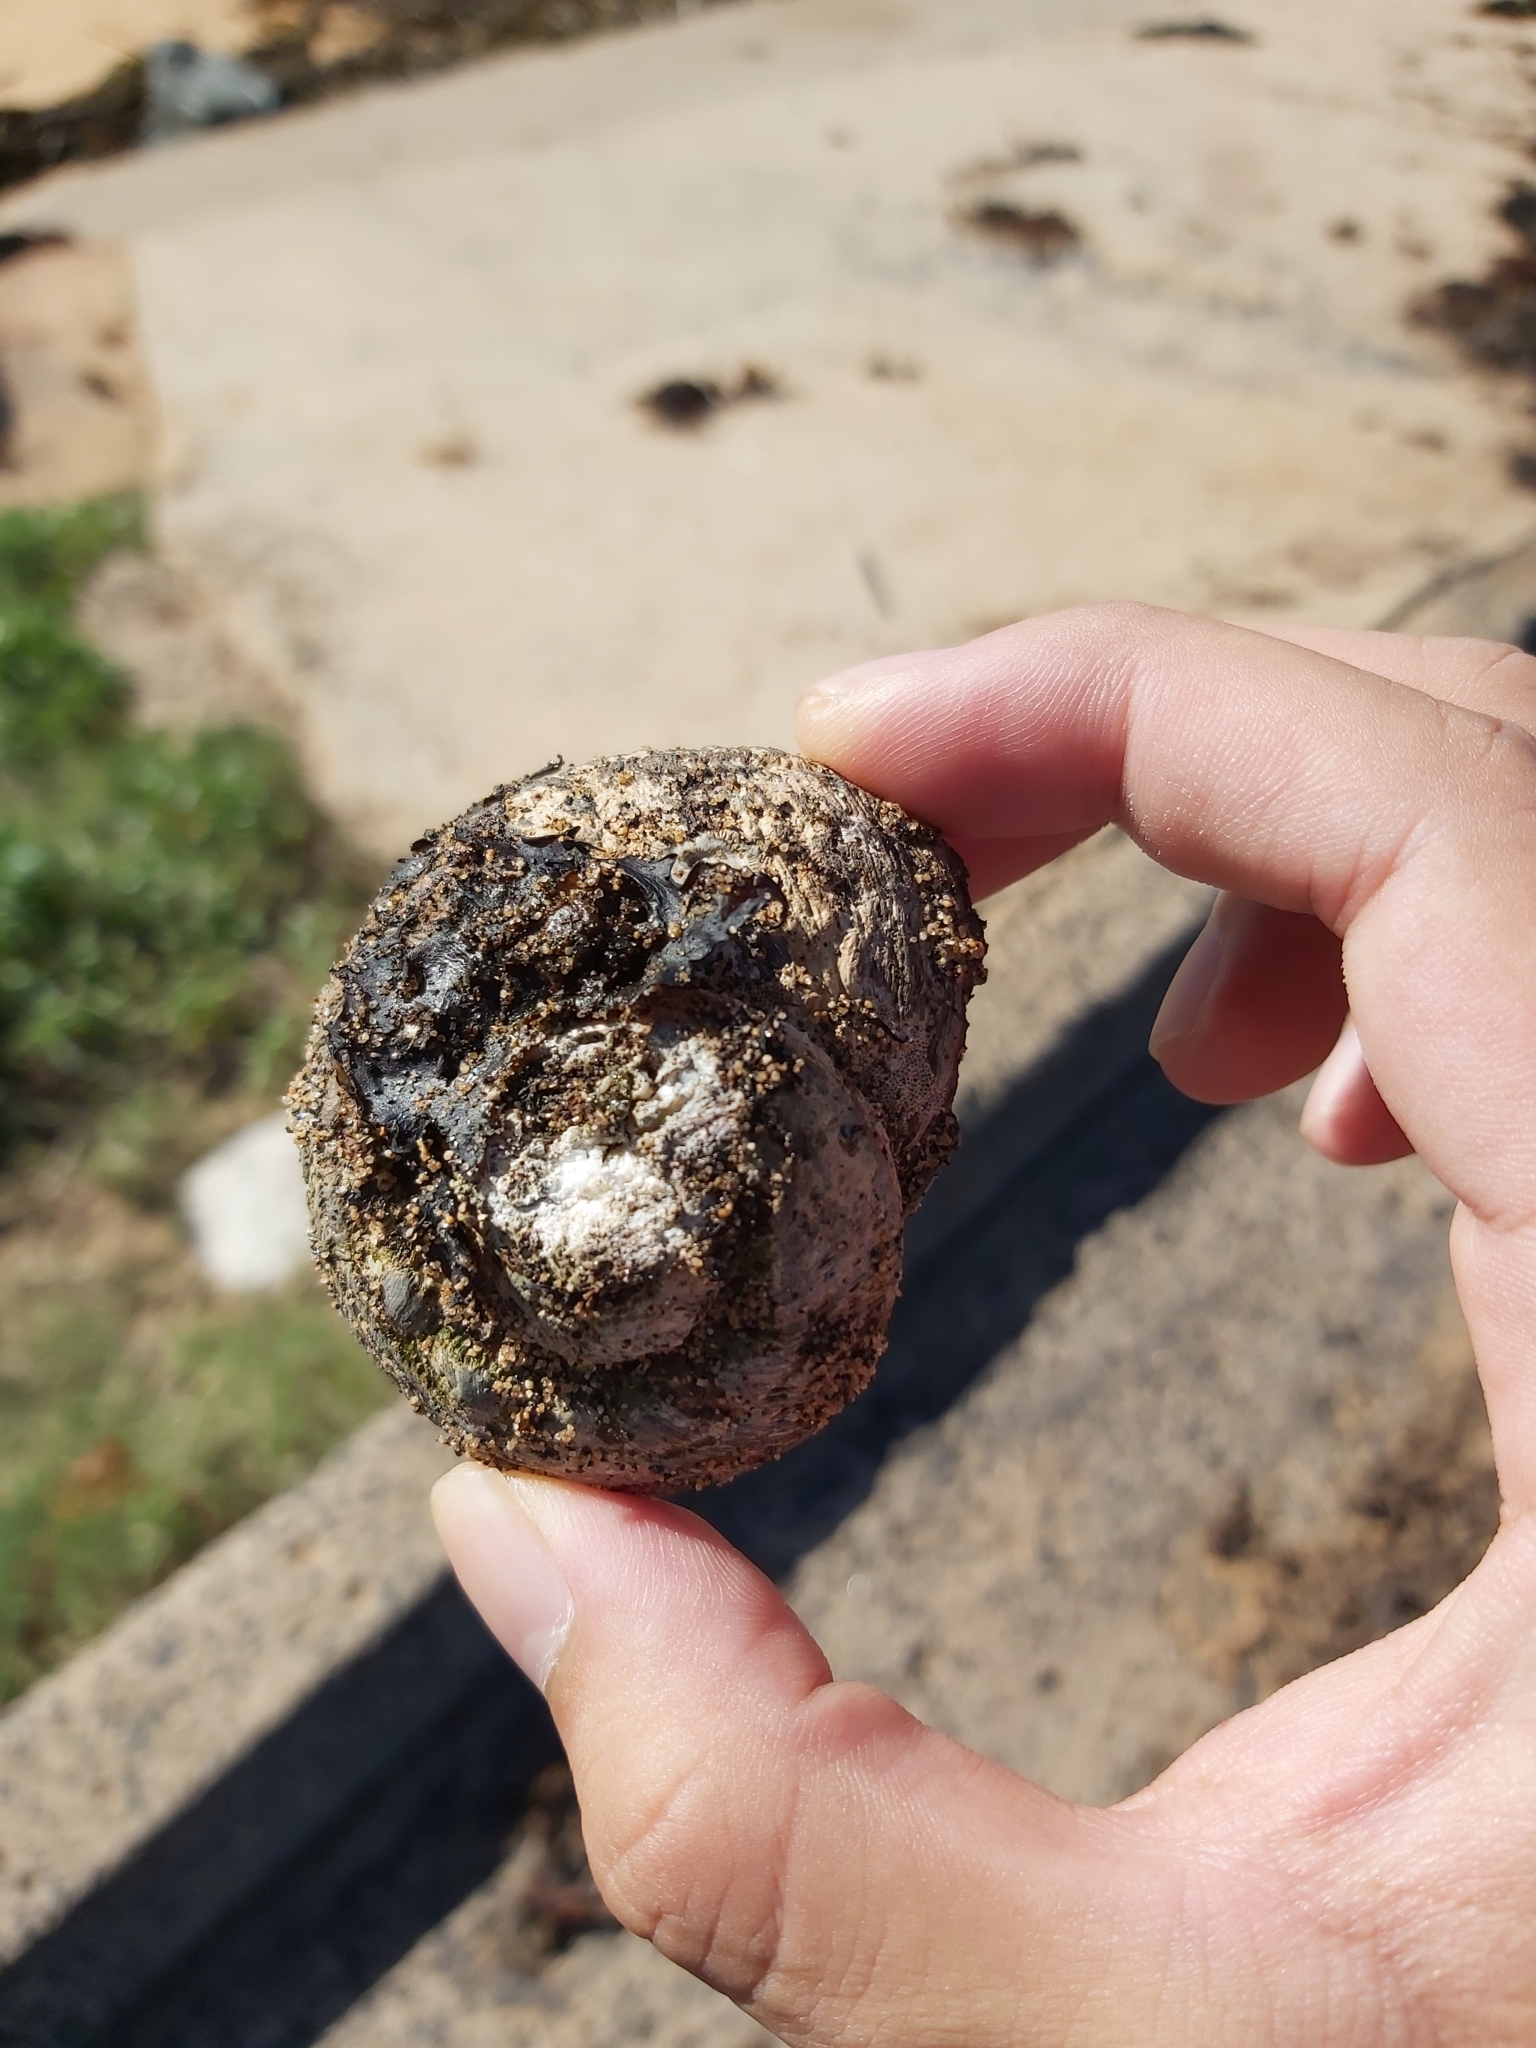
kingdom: Animalia
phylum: Mollusca
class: Gastropoda
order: Trochida
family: Turbinidae
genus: Lunella
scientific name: Lunella torquata
